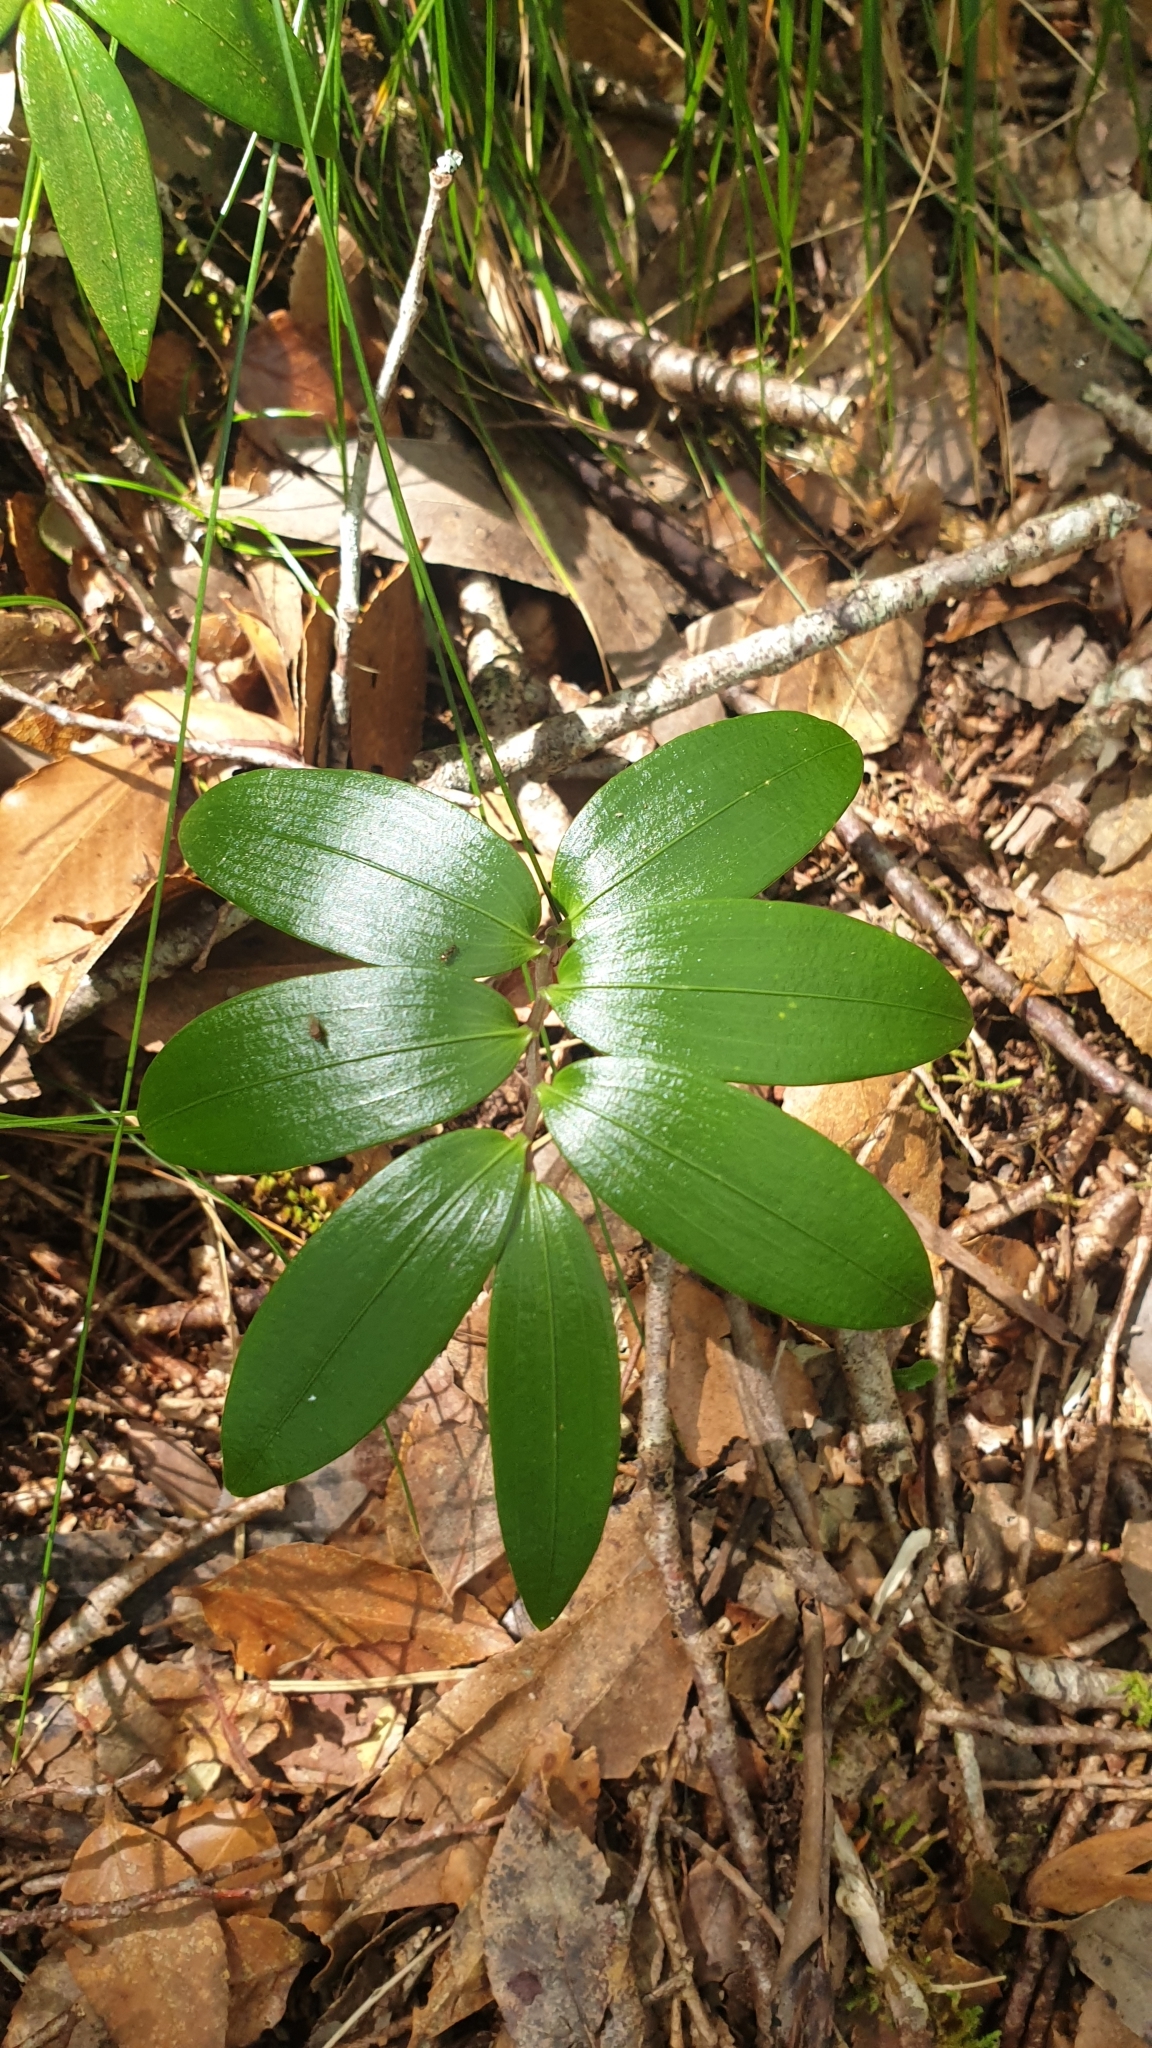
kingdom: Plantae
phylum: Tracheophyta
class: Liliopsida
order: Liliales
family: Alstroemeriaceae
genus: Drymophila
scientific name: Drymophila moorei
